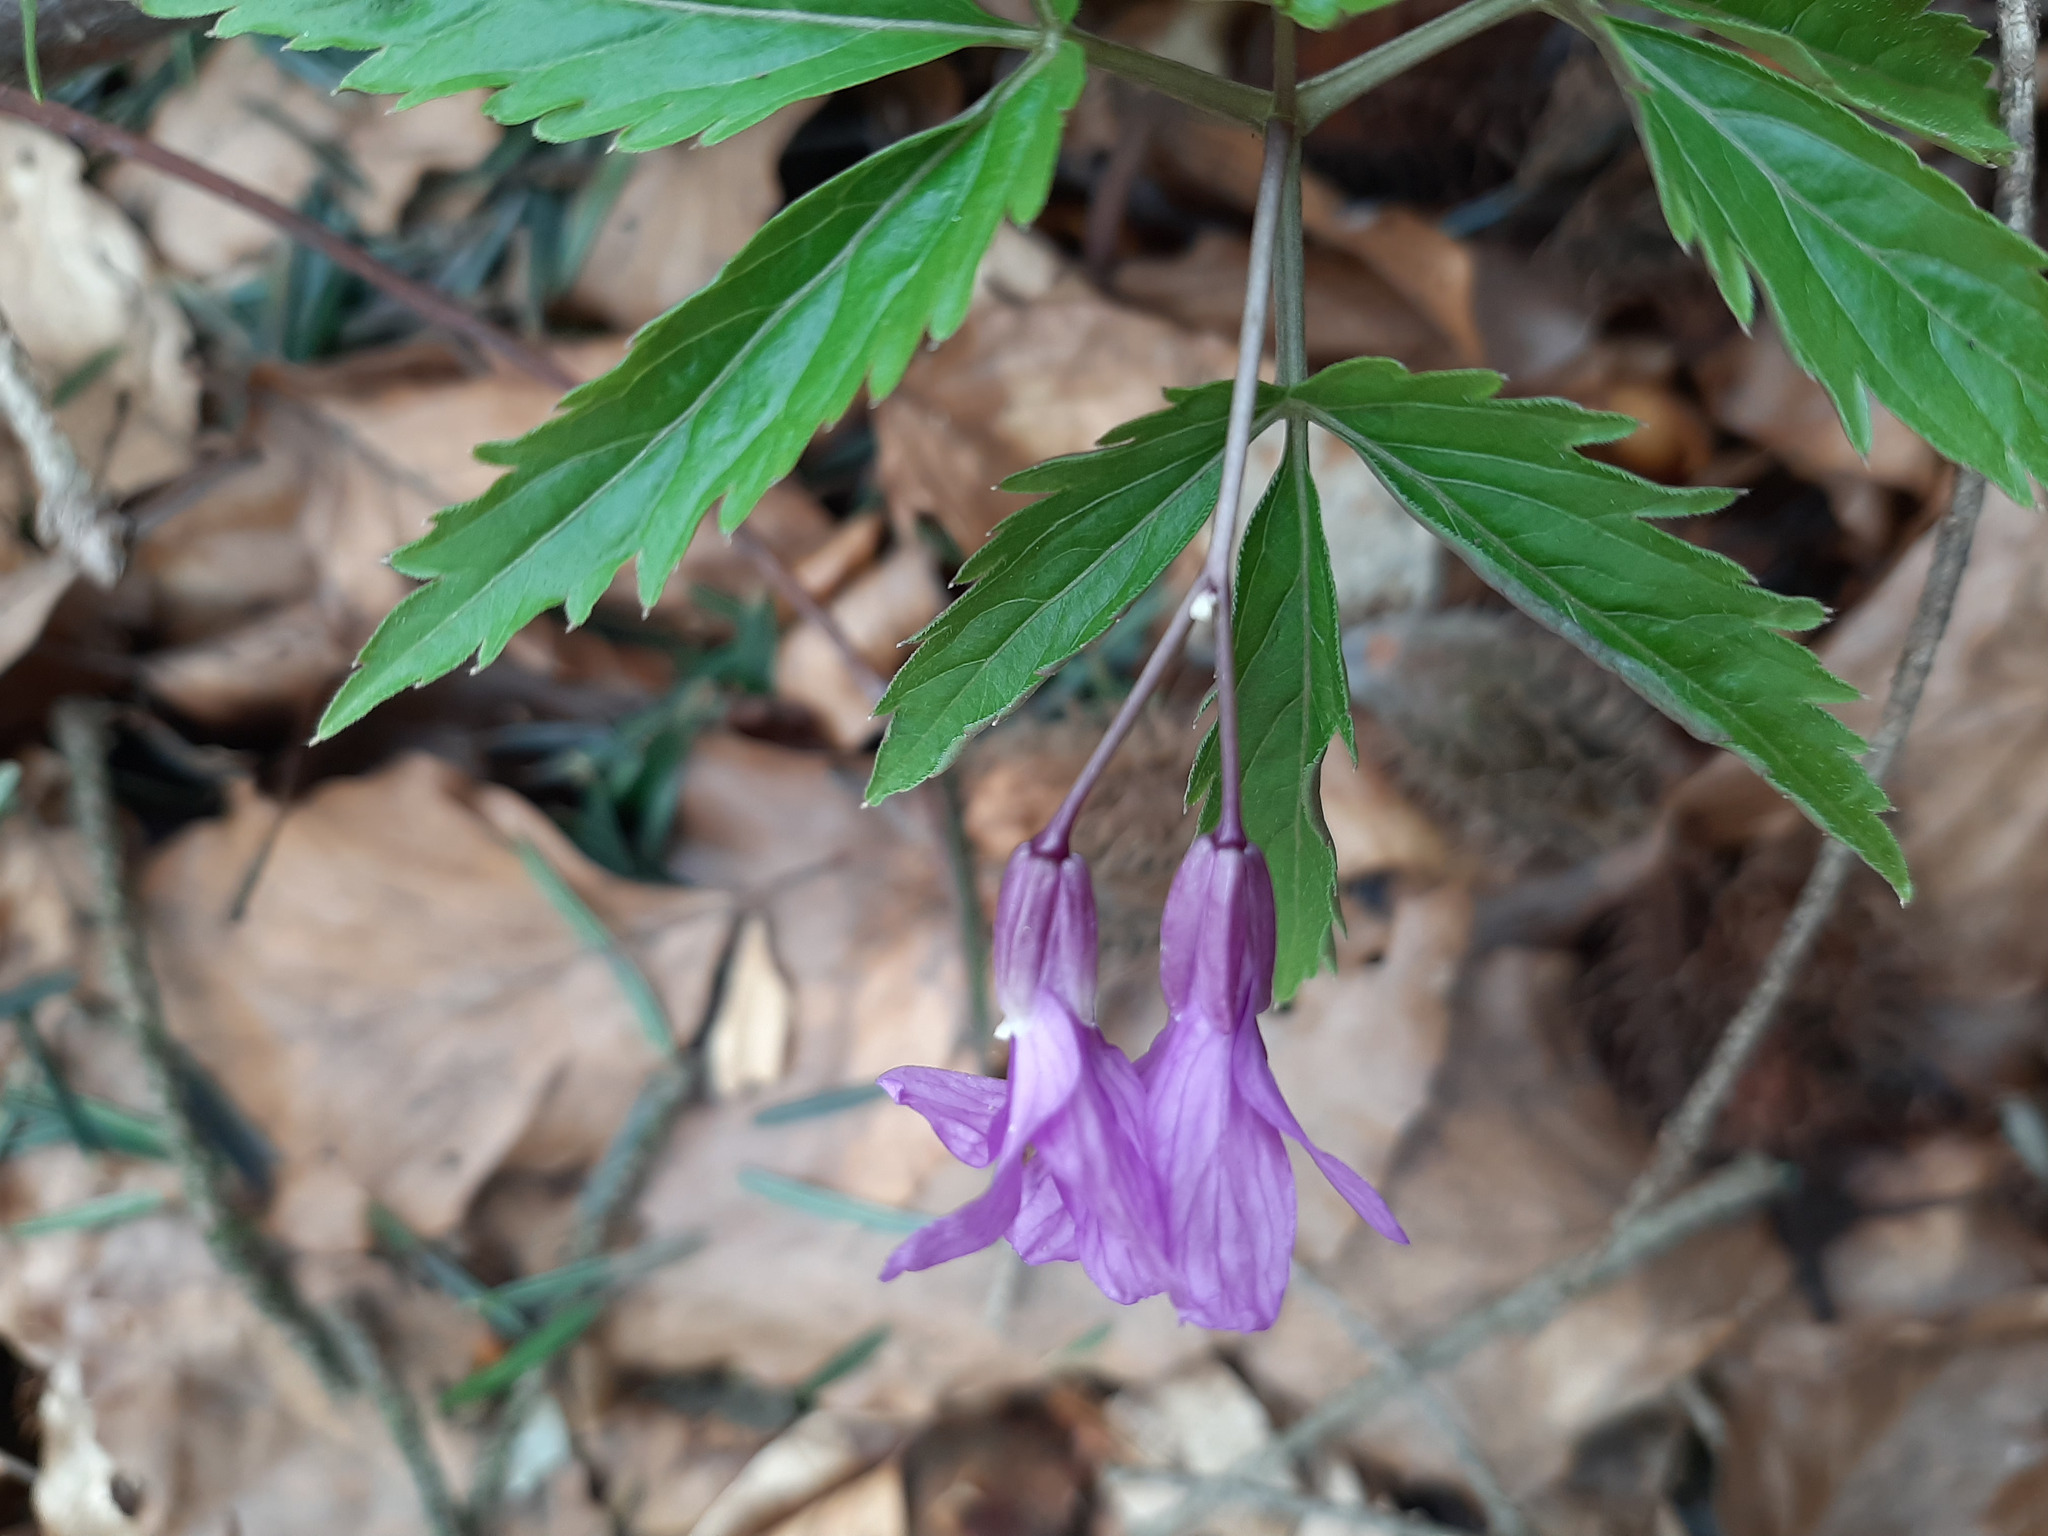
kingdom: Plantae
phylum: Tracheophyta
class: Magnoliopsida
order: Brassicales
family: Brassicaceae
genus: Cardamine
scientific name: Cardamine glanduligera
